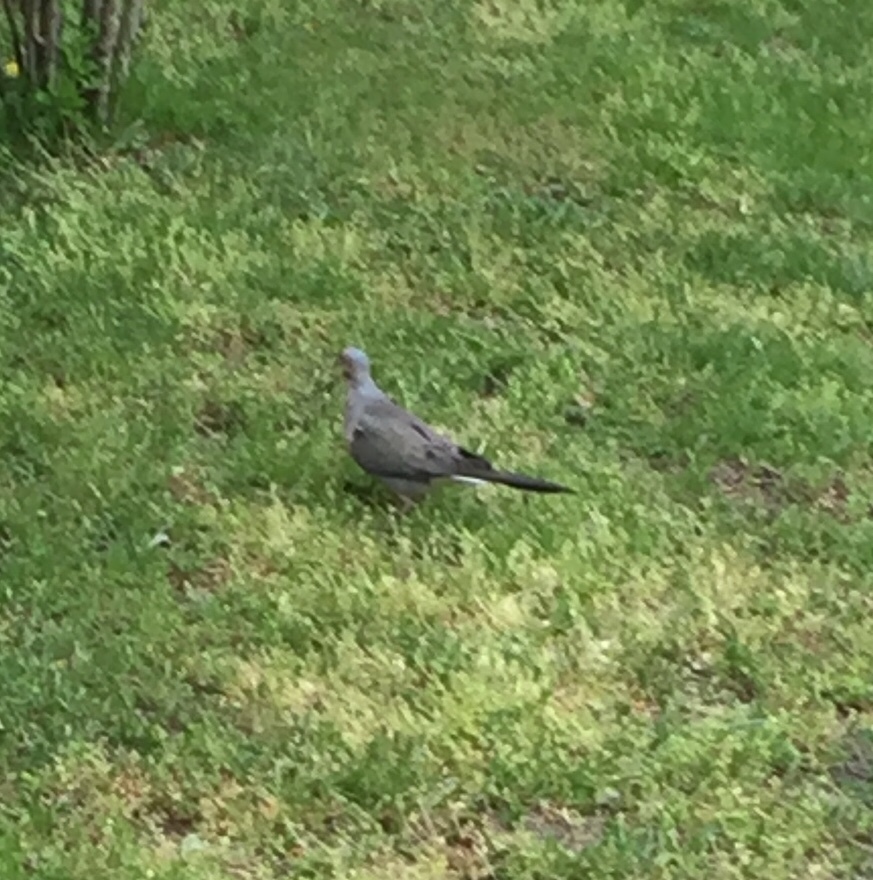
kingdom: Animalia
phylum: Chordata
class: Aves
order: Columbiformes
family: Columbidae
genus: Zenaida
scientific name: Zenaida macroura
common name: Mourning dove
